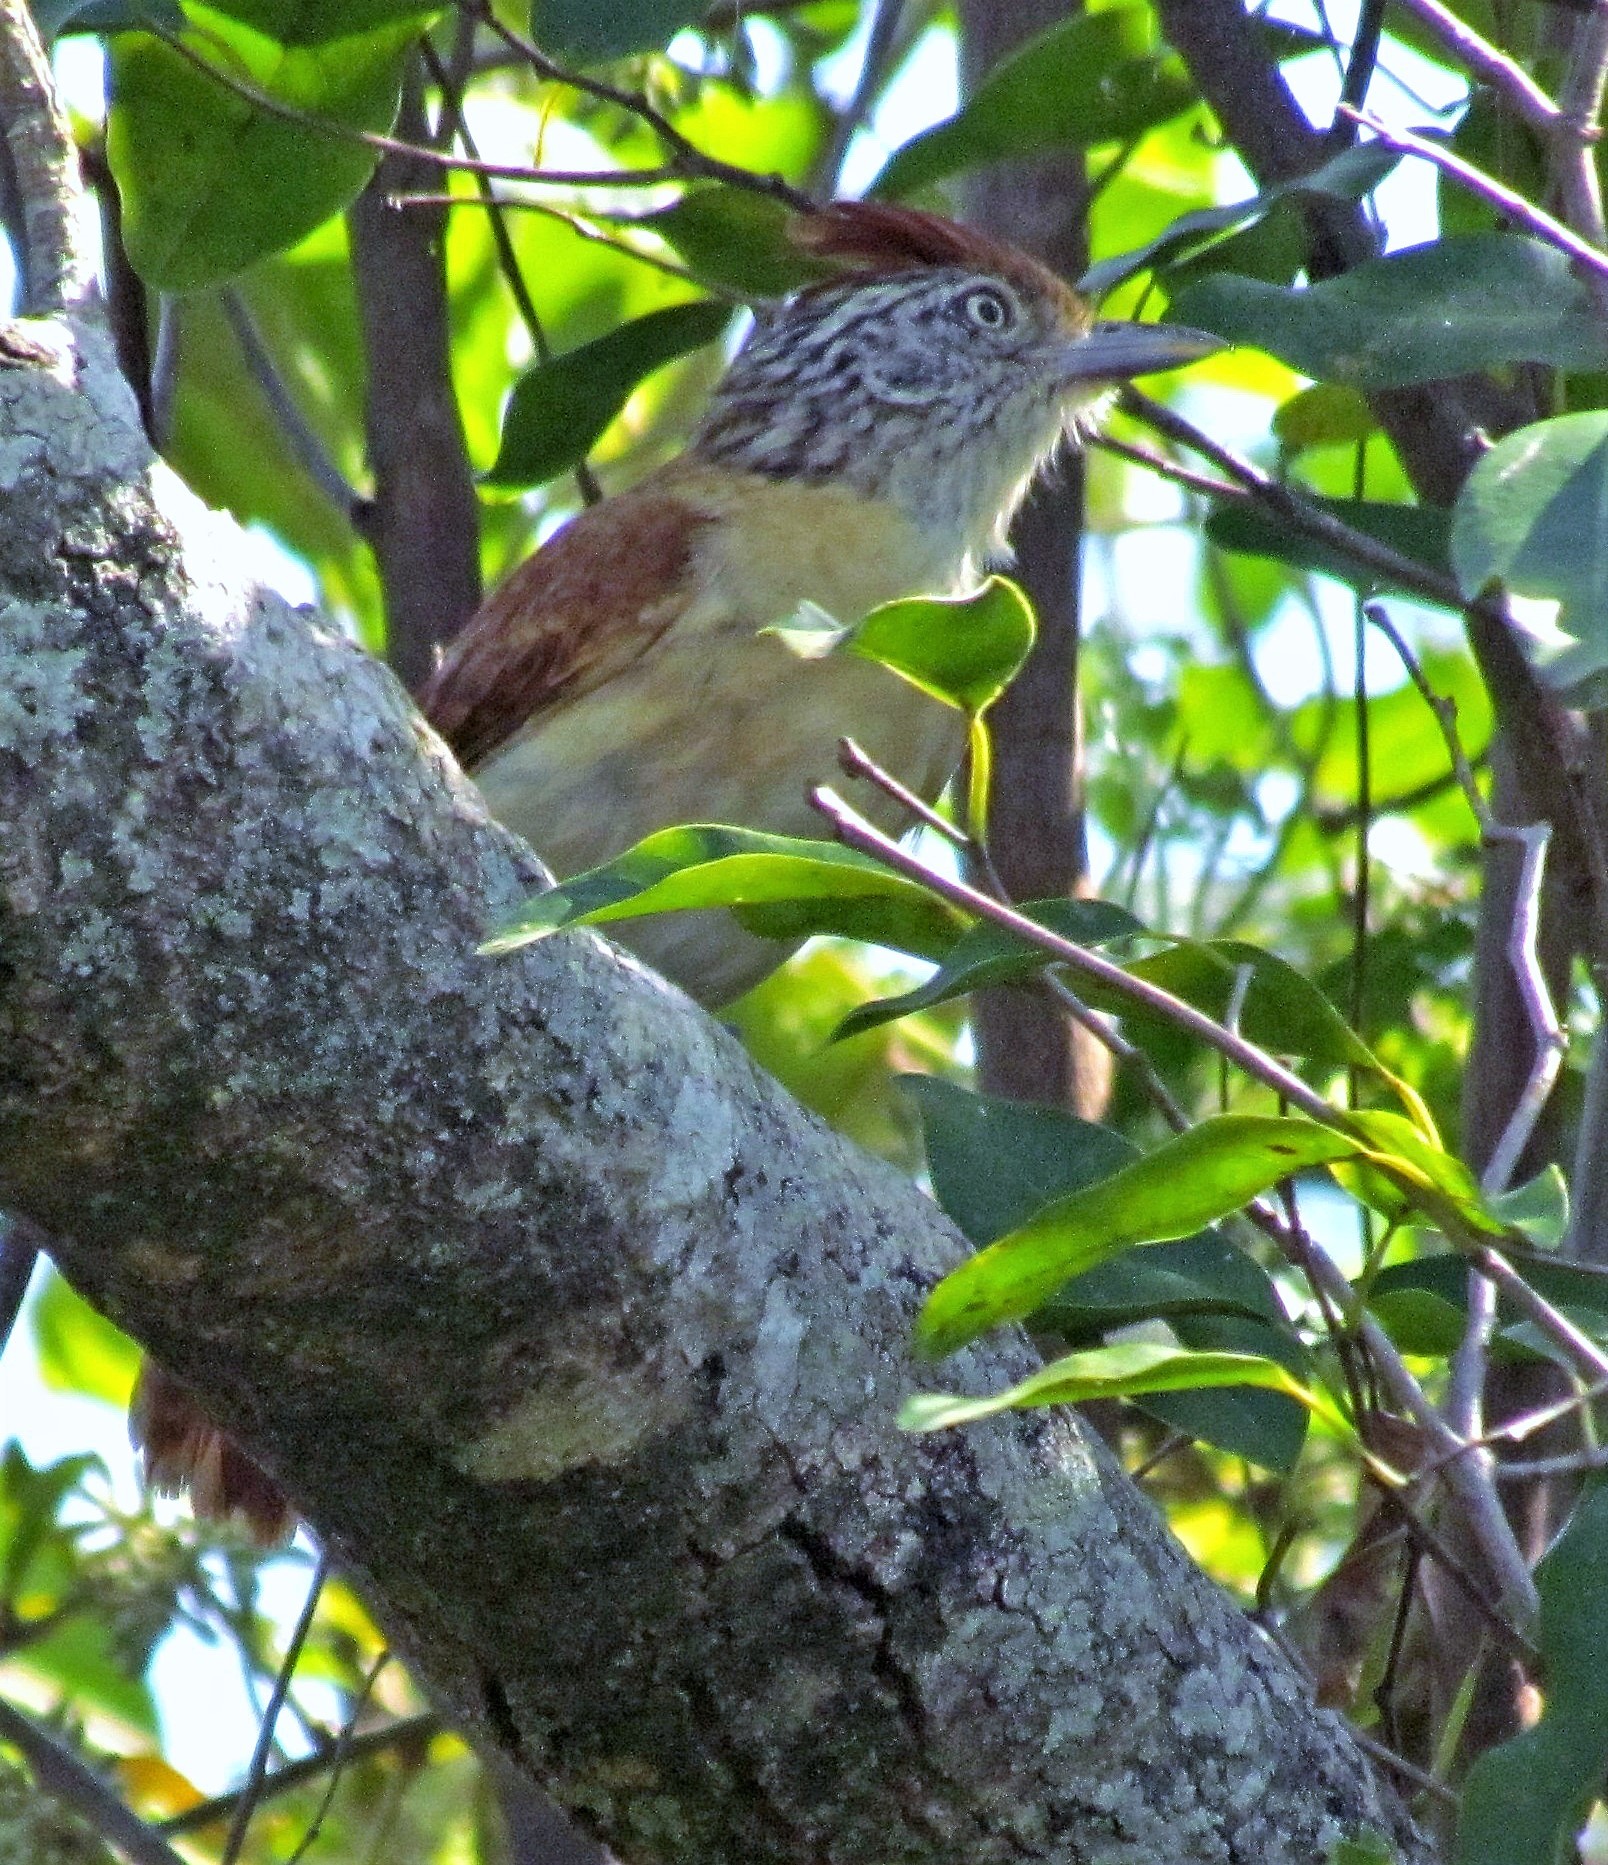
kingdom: Animalia
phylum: Chordata
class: Aves
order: Passeriformes
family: Thamnophilidae
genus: Thamnophilus
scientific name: Thamnophilus doliatus
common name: Barred antshrike
